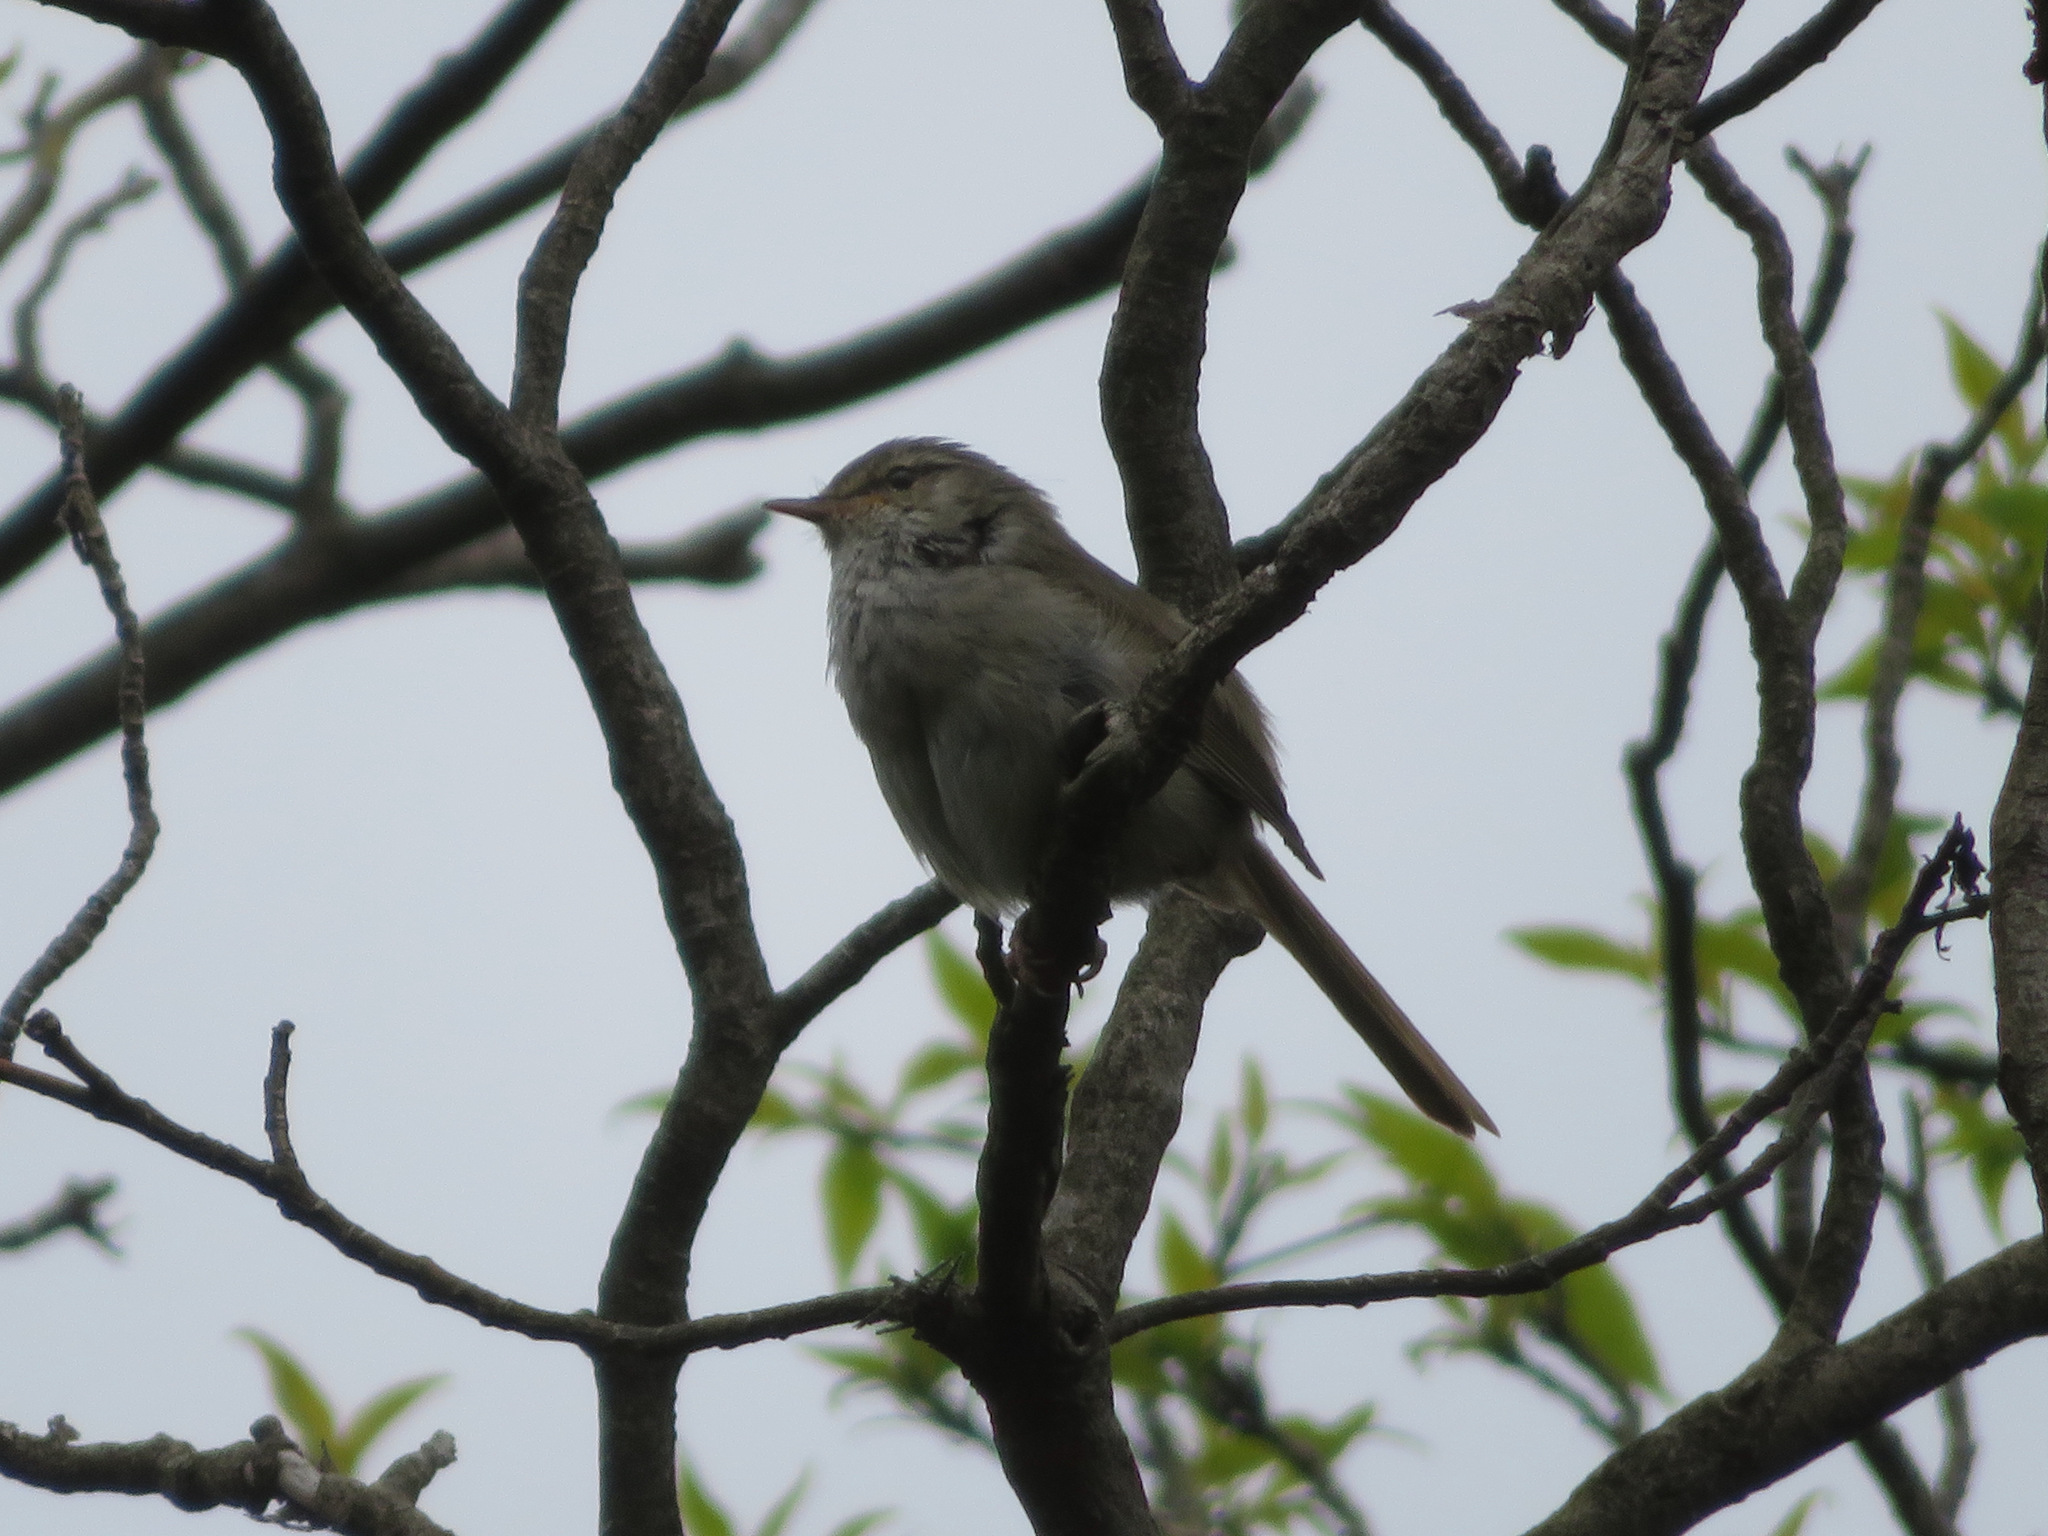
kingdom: Animalia
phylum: Chordata
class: Aves
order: Passeriformes
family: Cettiidae
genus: Horornis
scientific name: Horornis diphone
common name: Japanese bush warbler
